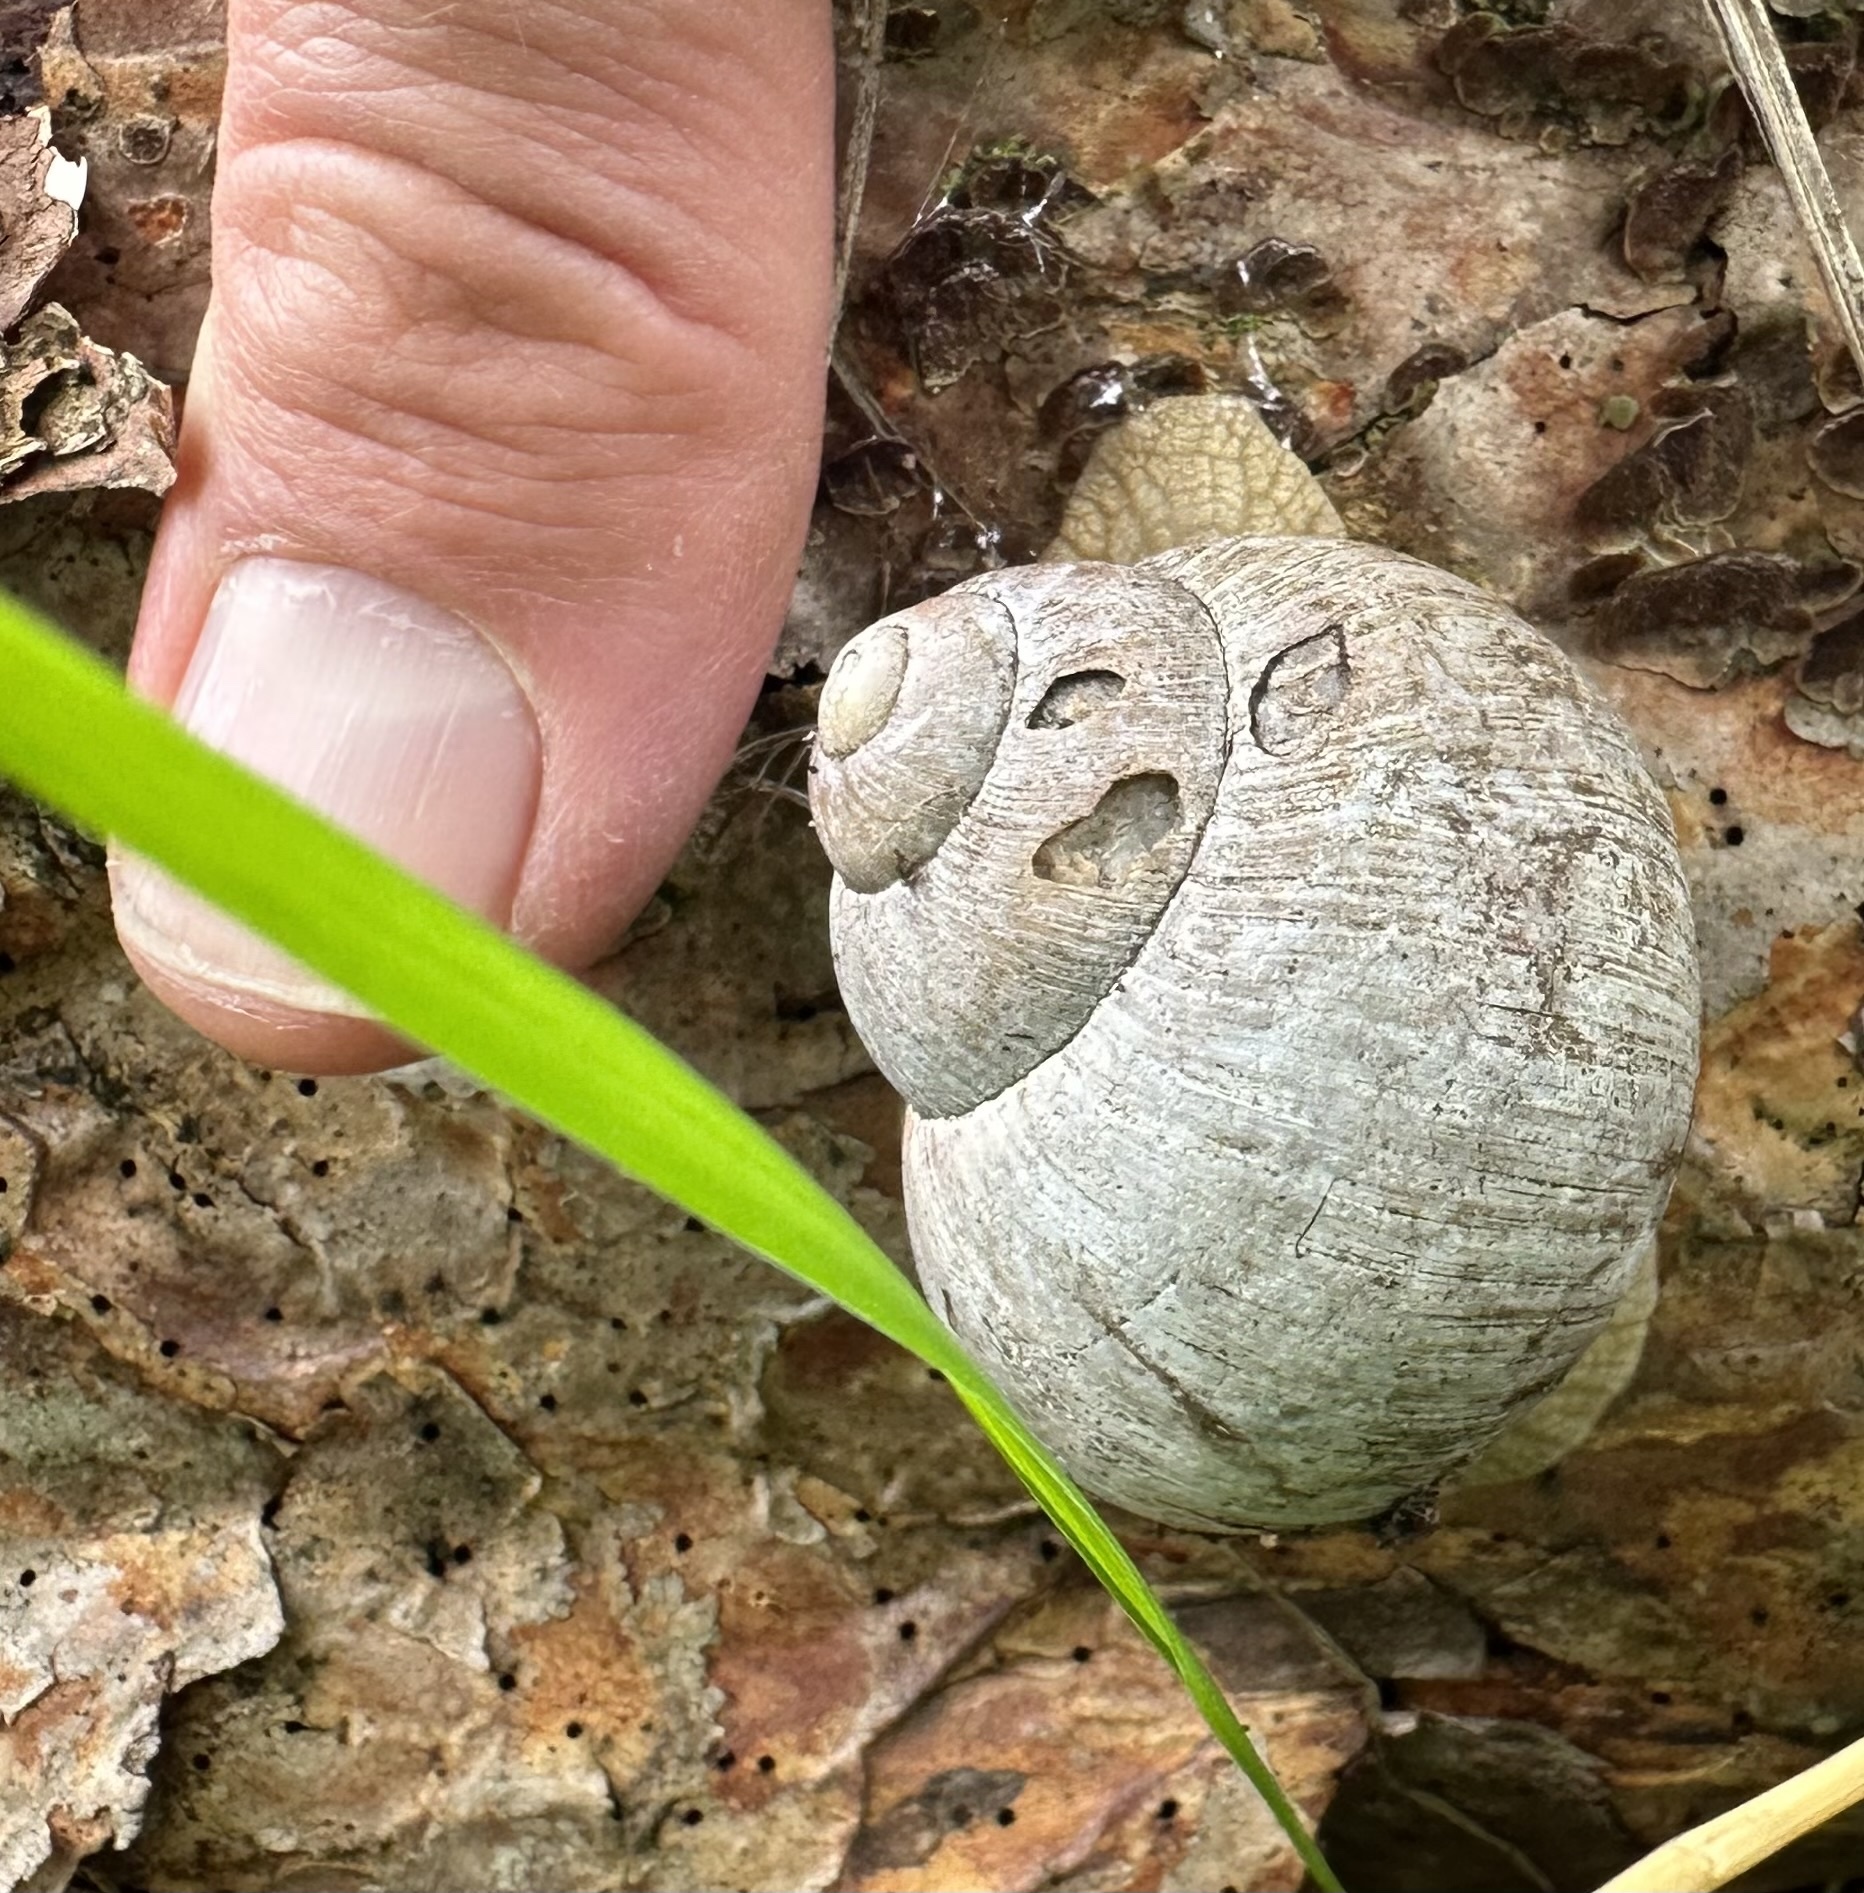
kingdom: Animalia
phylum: Mollusca
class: Gastropoda
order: Stylommatophora
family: Helicidae
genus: Helix
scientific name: Helix pomatia
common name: Roman snail
